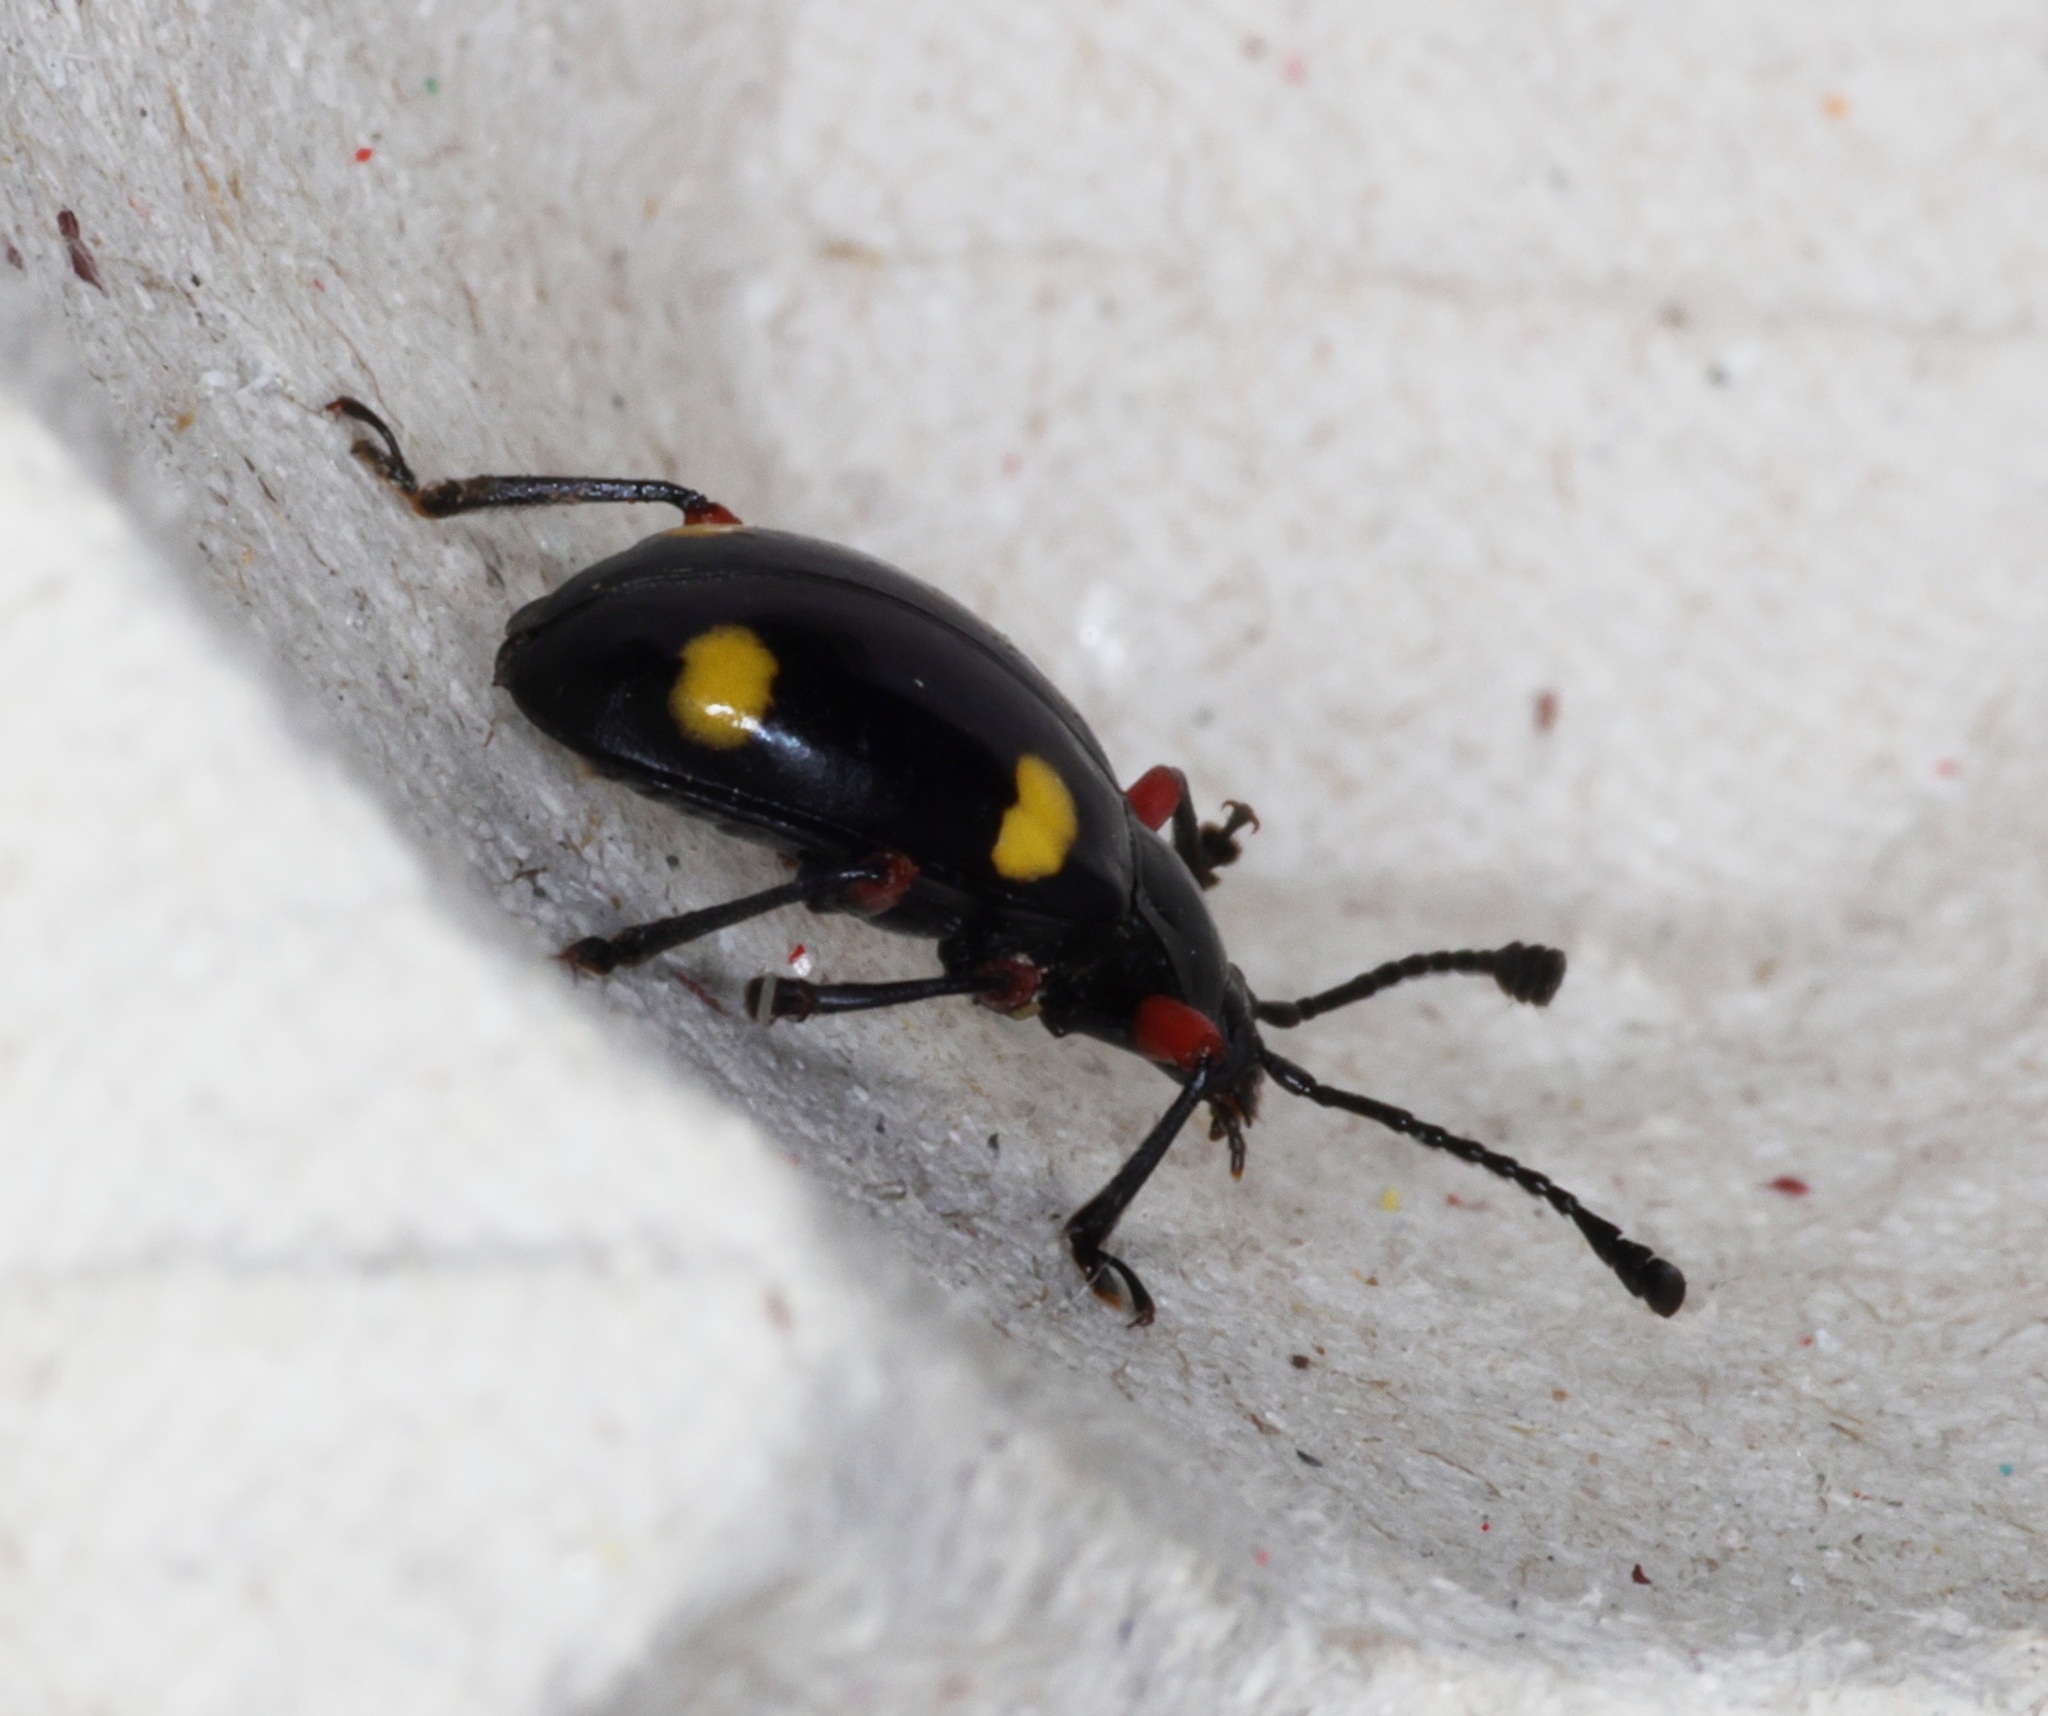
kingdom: Animalia
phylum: Arthropoda
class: Insecta
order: Coleoptera
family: Endomychidae
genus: Eumorphus
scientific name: Eumorphus quadriguttatus
